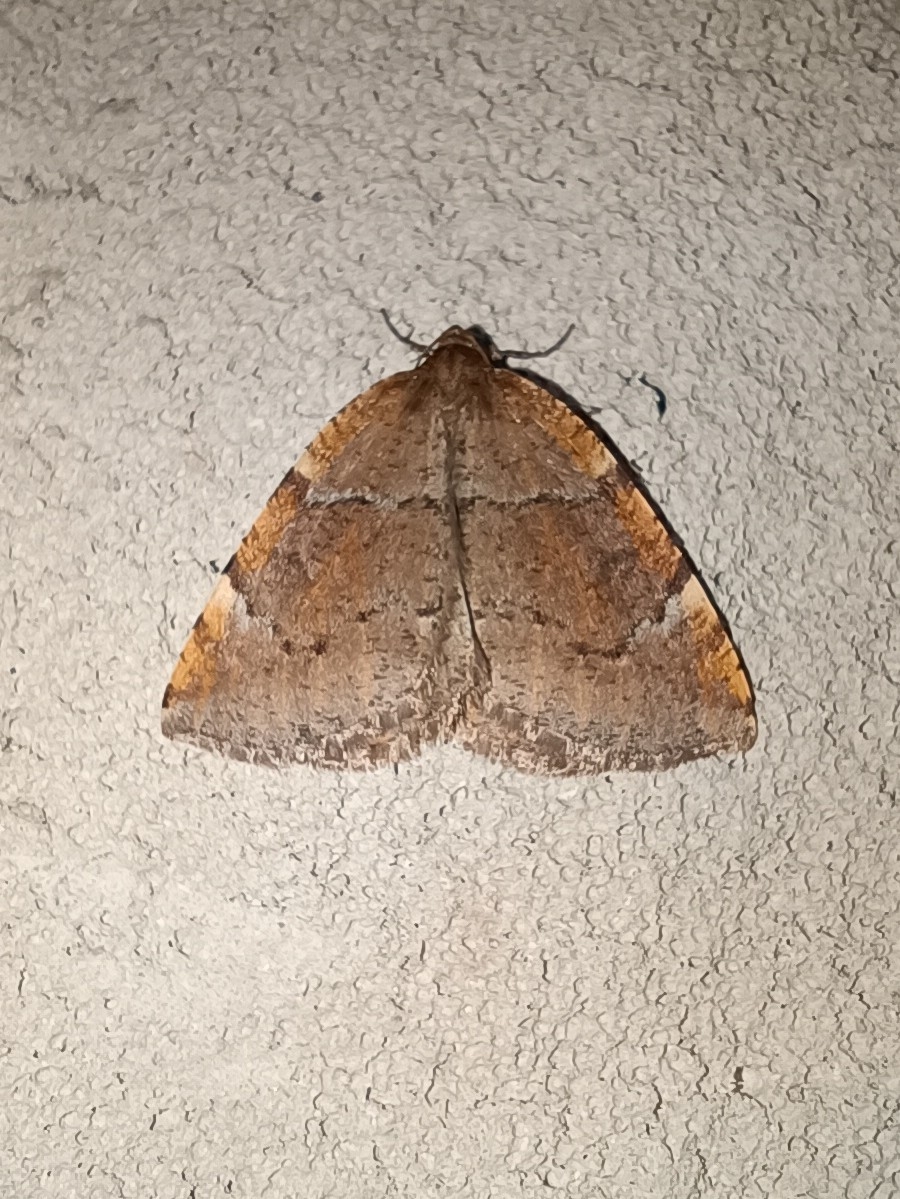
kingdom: Animalia
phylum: Arthropoda
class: Insecta
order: Lepidoptera
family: Geometridae
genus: Epirranthis
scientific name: Epirranthis diversata
